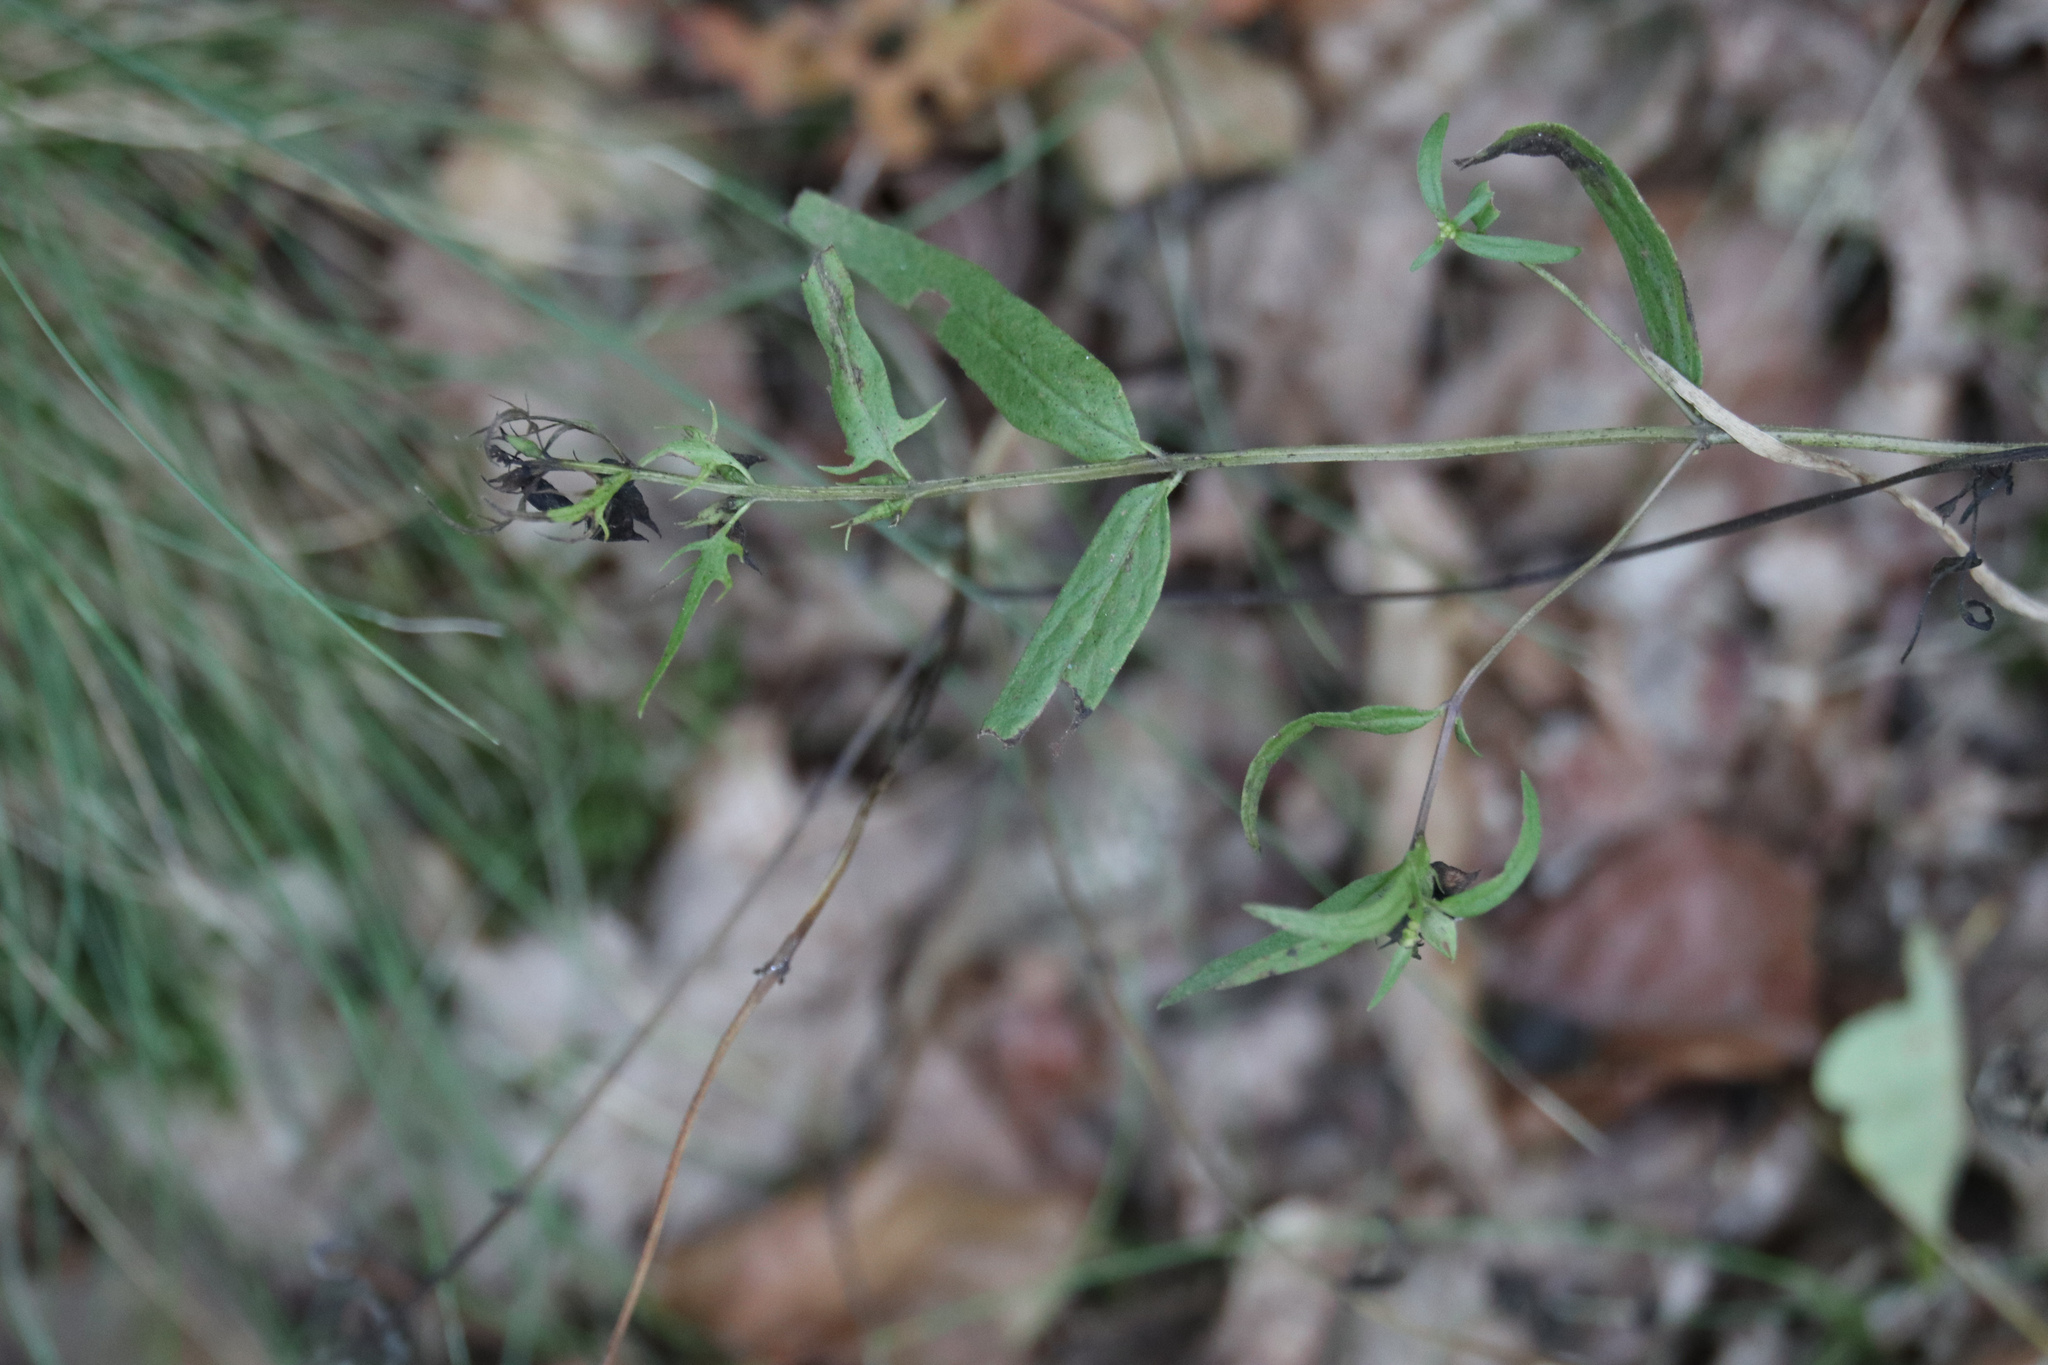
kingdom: Plantae
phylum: Tracheophyta
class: Magnoliopsida
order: Lamiales
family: Orobanchaceae
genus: Melampyrum
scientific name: Melampyrum pratense
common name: Common cow-wheat
